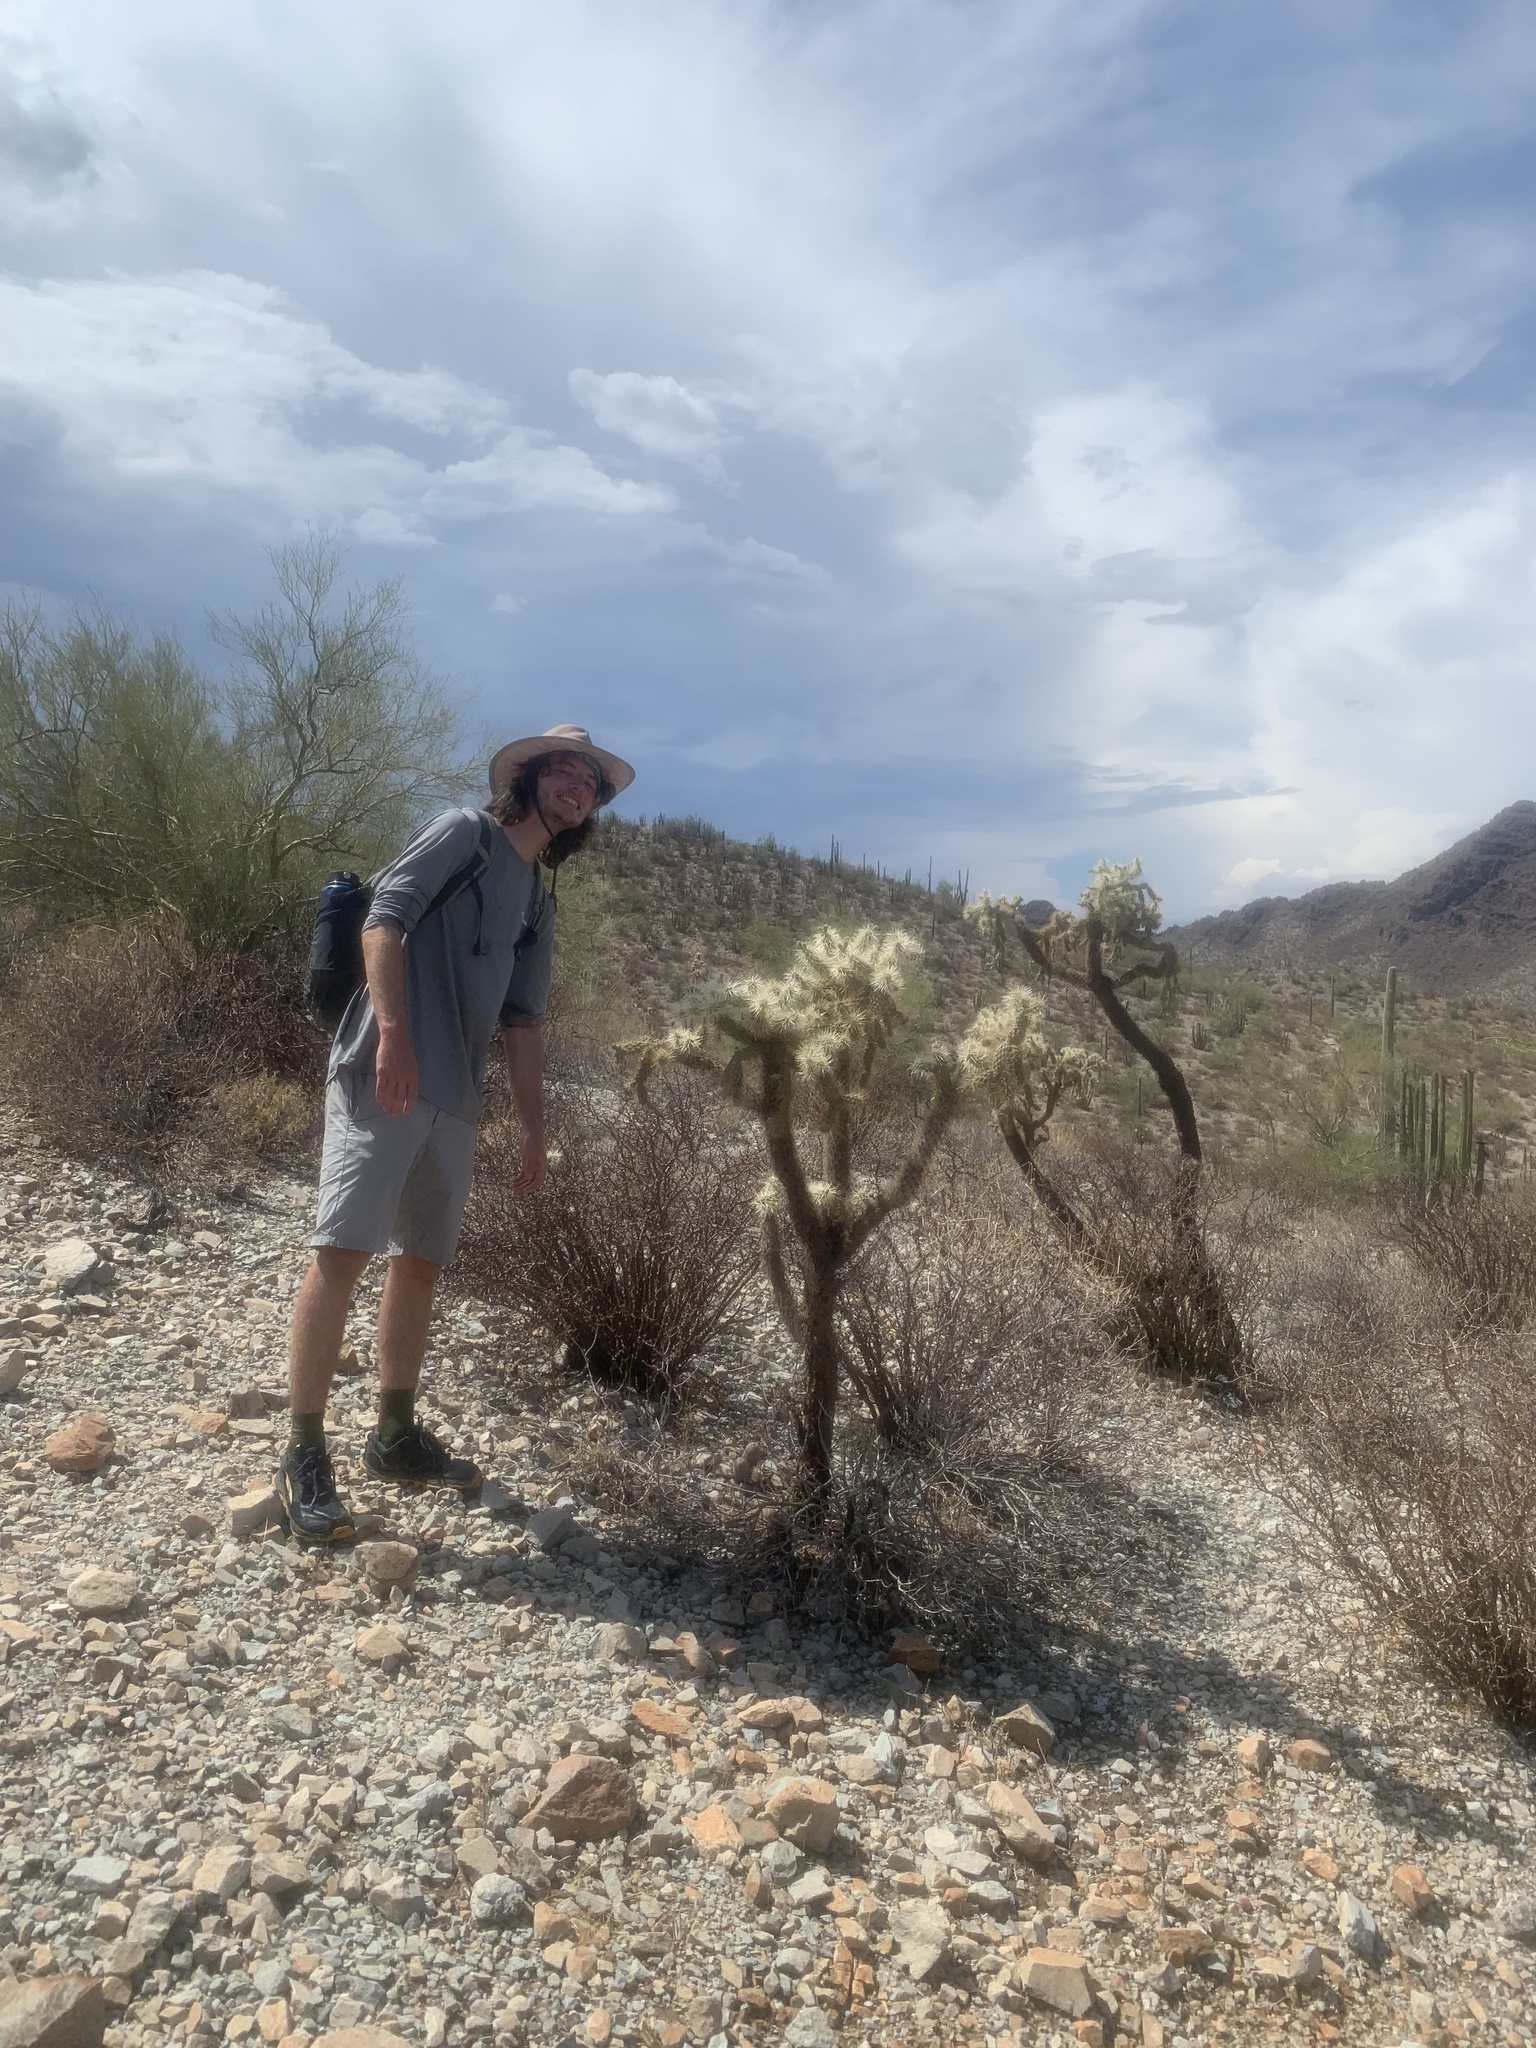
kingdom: Plantae
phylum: Tracheophyta
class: Magnoliopsida
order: Caryophyllales
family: Cactaceae
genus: Cylindropuntia
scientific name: Cylindropuntia fulgida
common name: Jumping cholla
